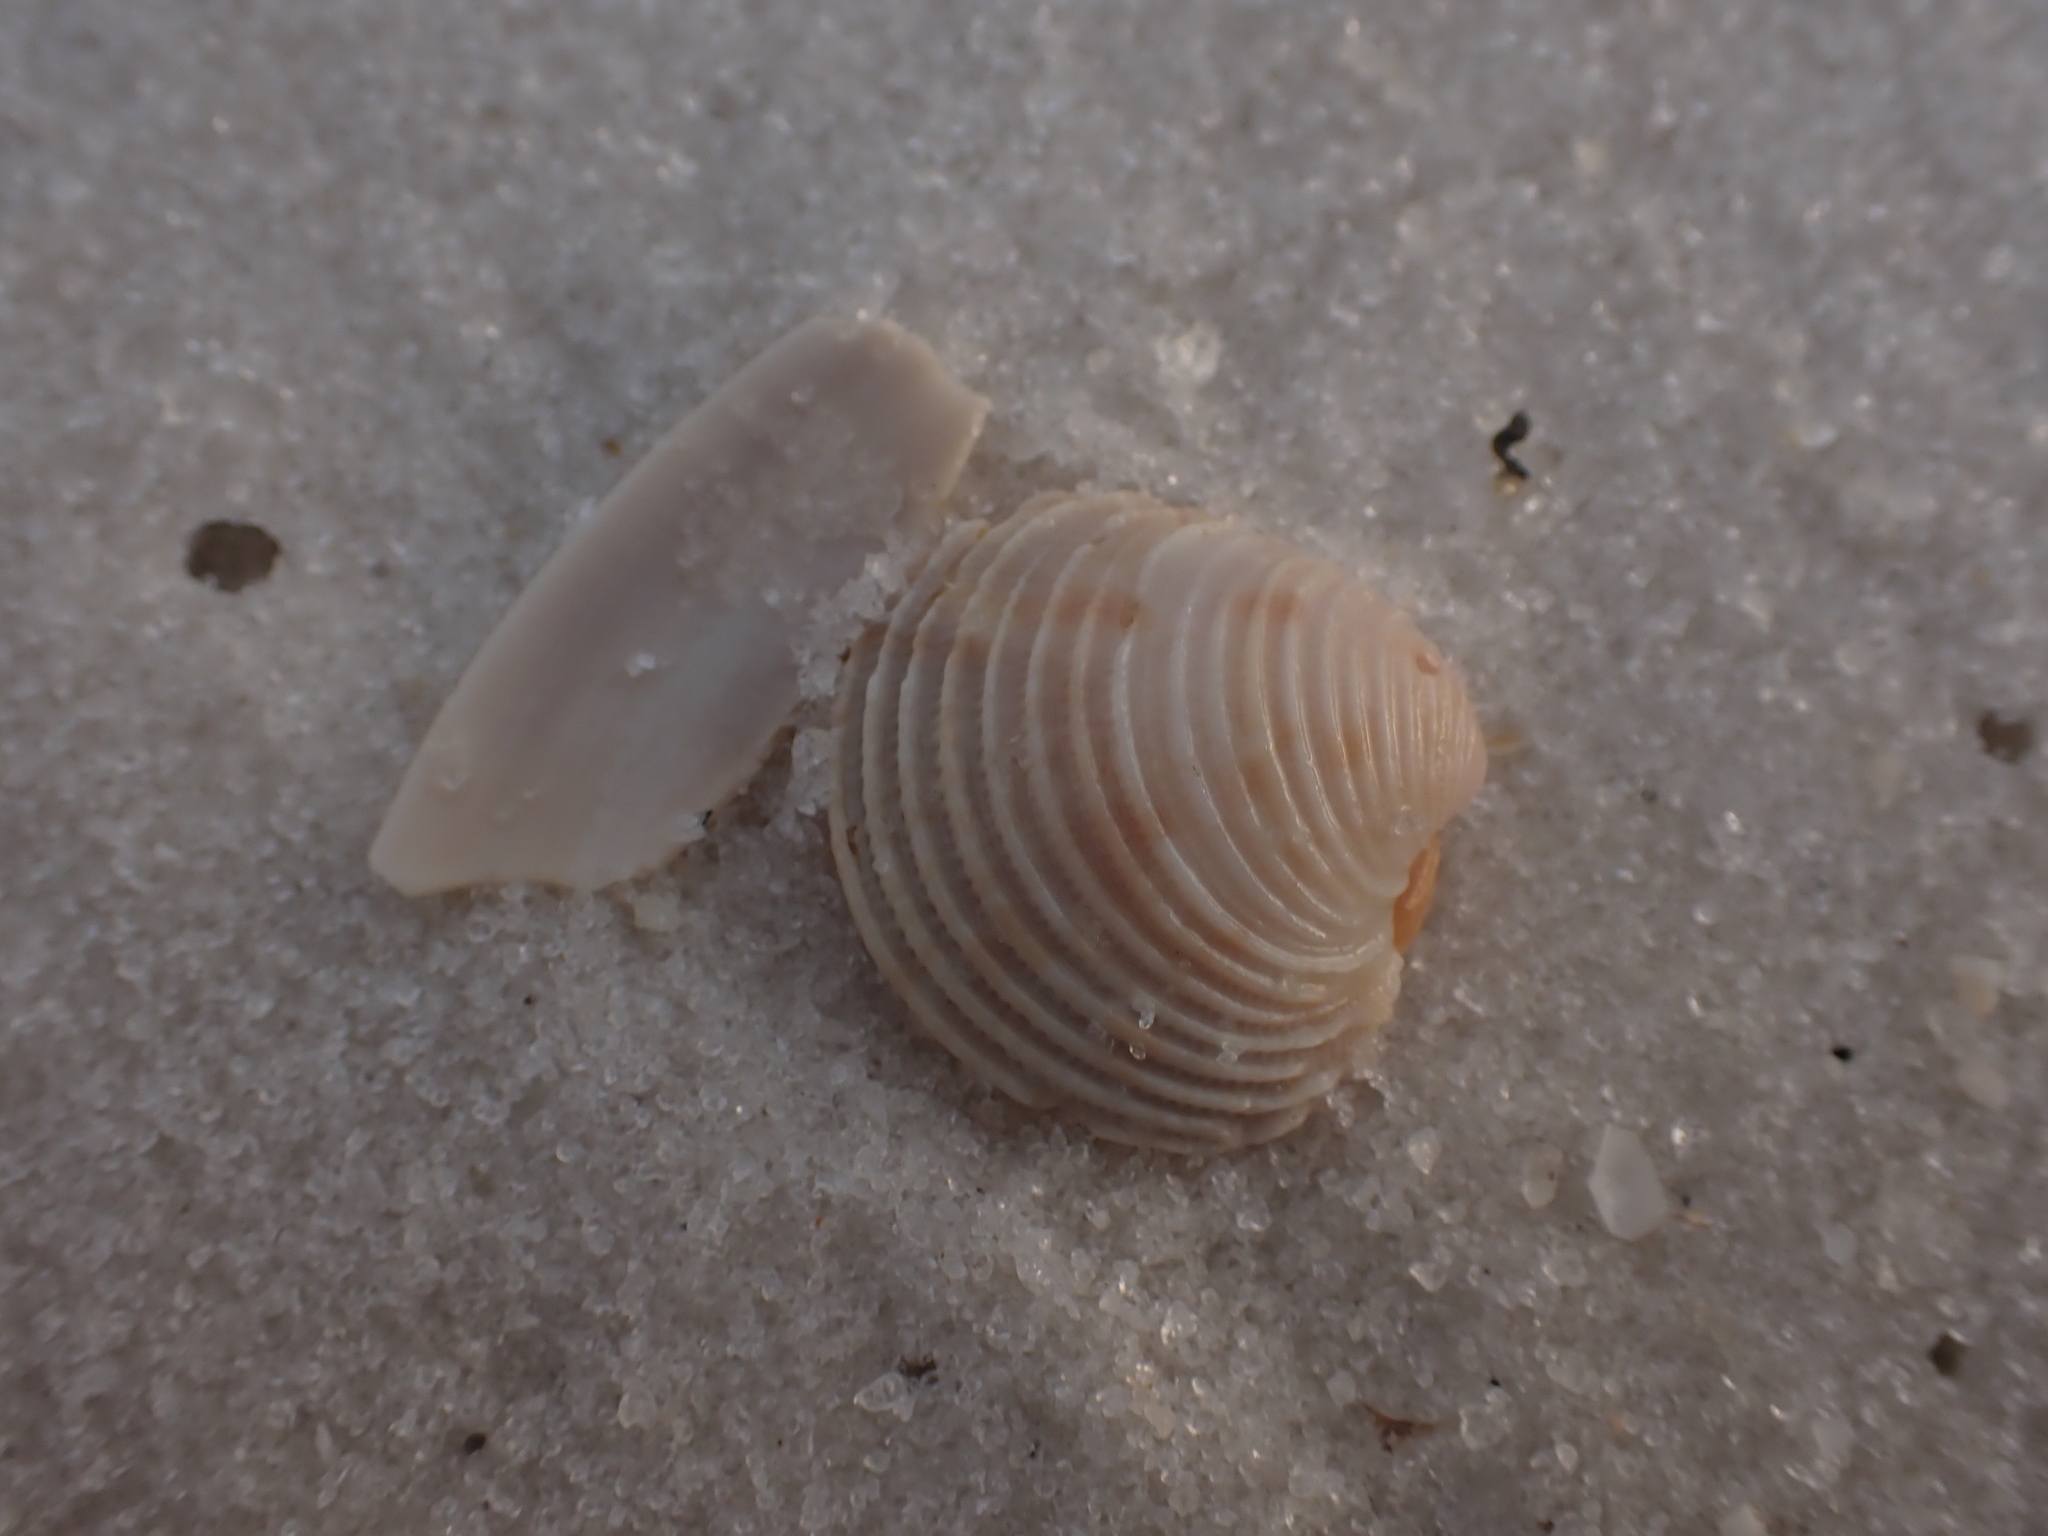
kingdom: Animalia
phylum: Mollusca
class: Bivalvia
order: Venerida
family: Veneridae
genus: Chionopsis
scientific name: Chionopsis intapurpurea
